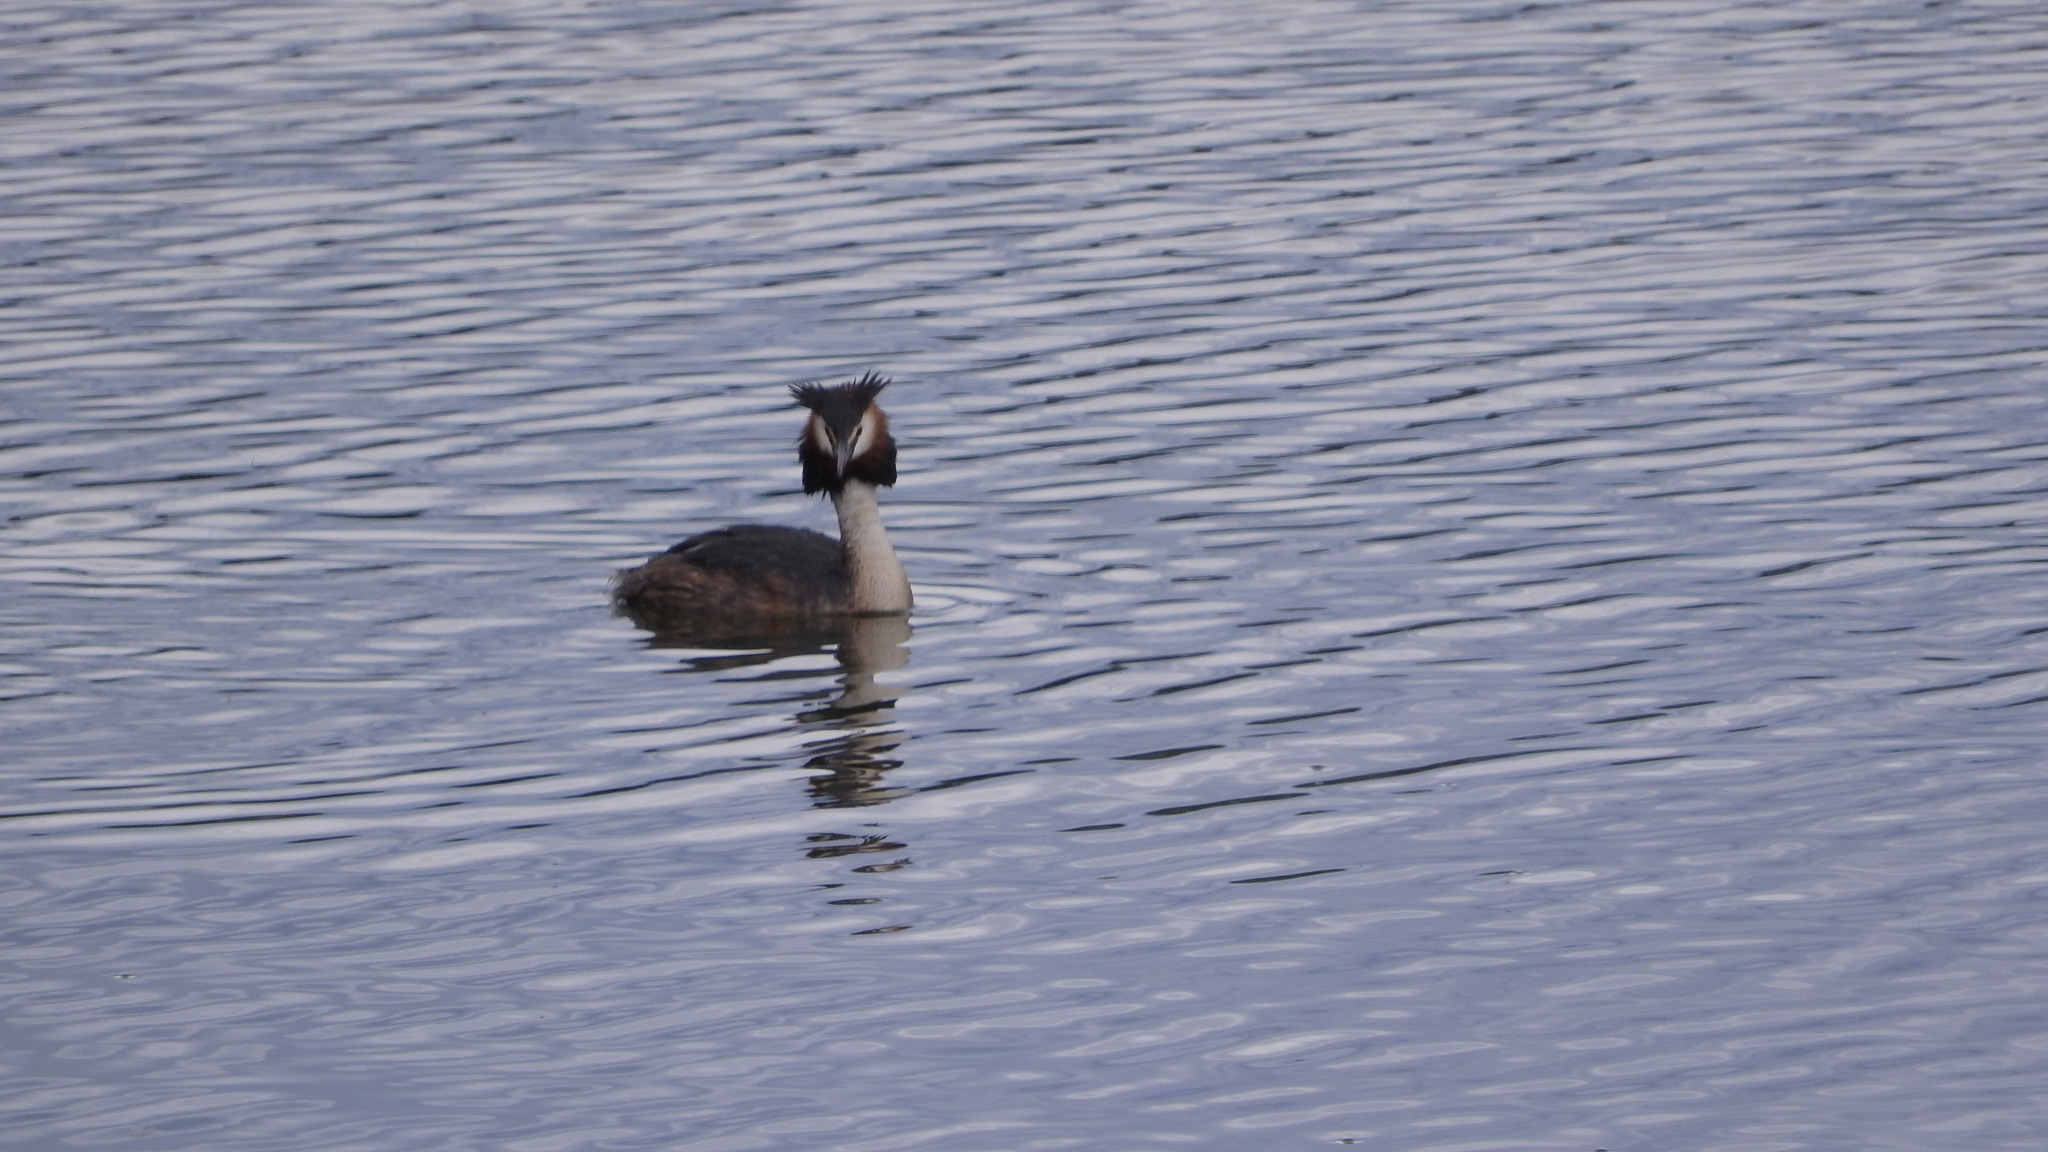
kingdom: Animalia
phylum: Chordata
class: Aves
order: Podicipediformes
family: Podicipedidae
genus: Podiceps
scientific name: Podiceps cristatus
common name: Great crested grebe
